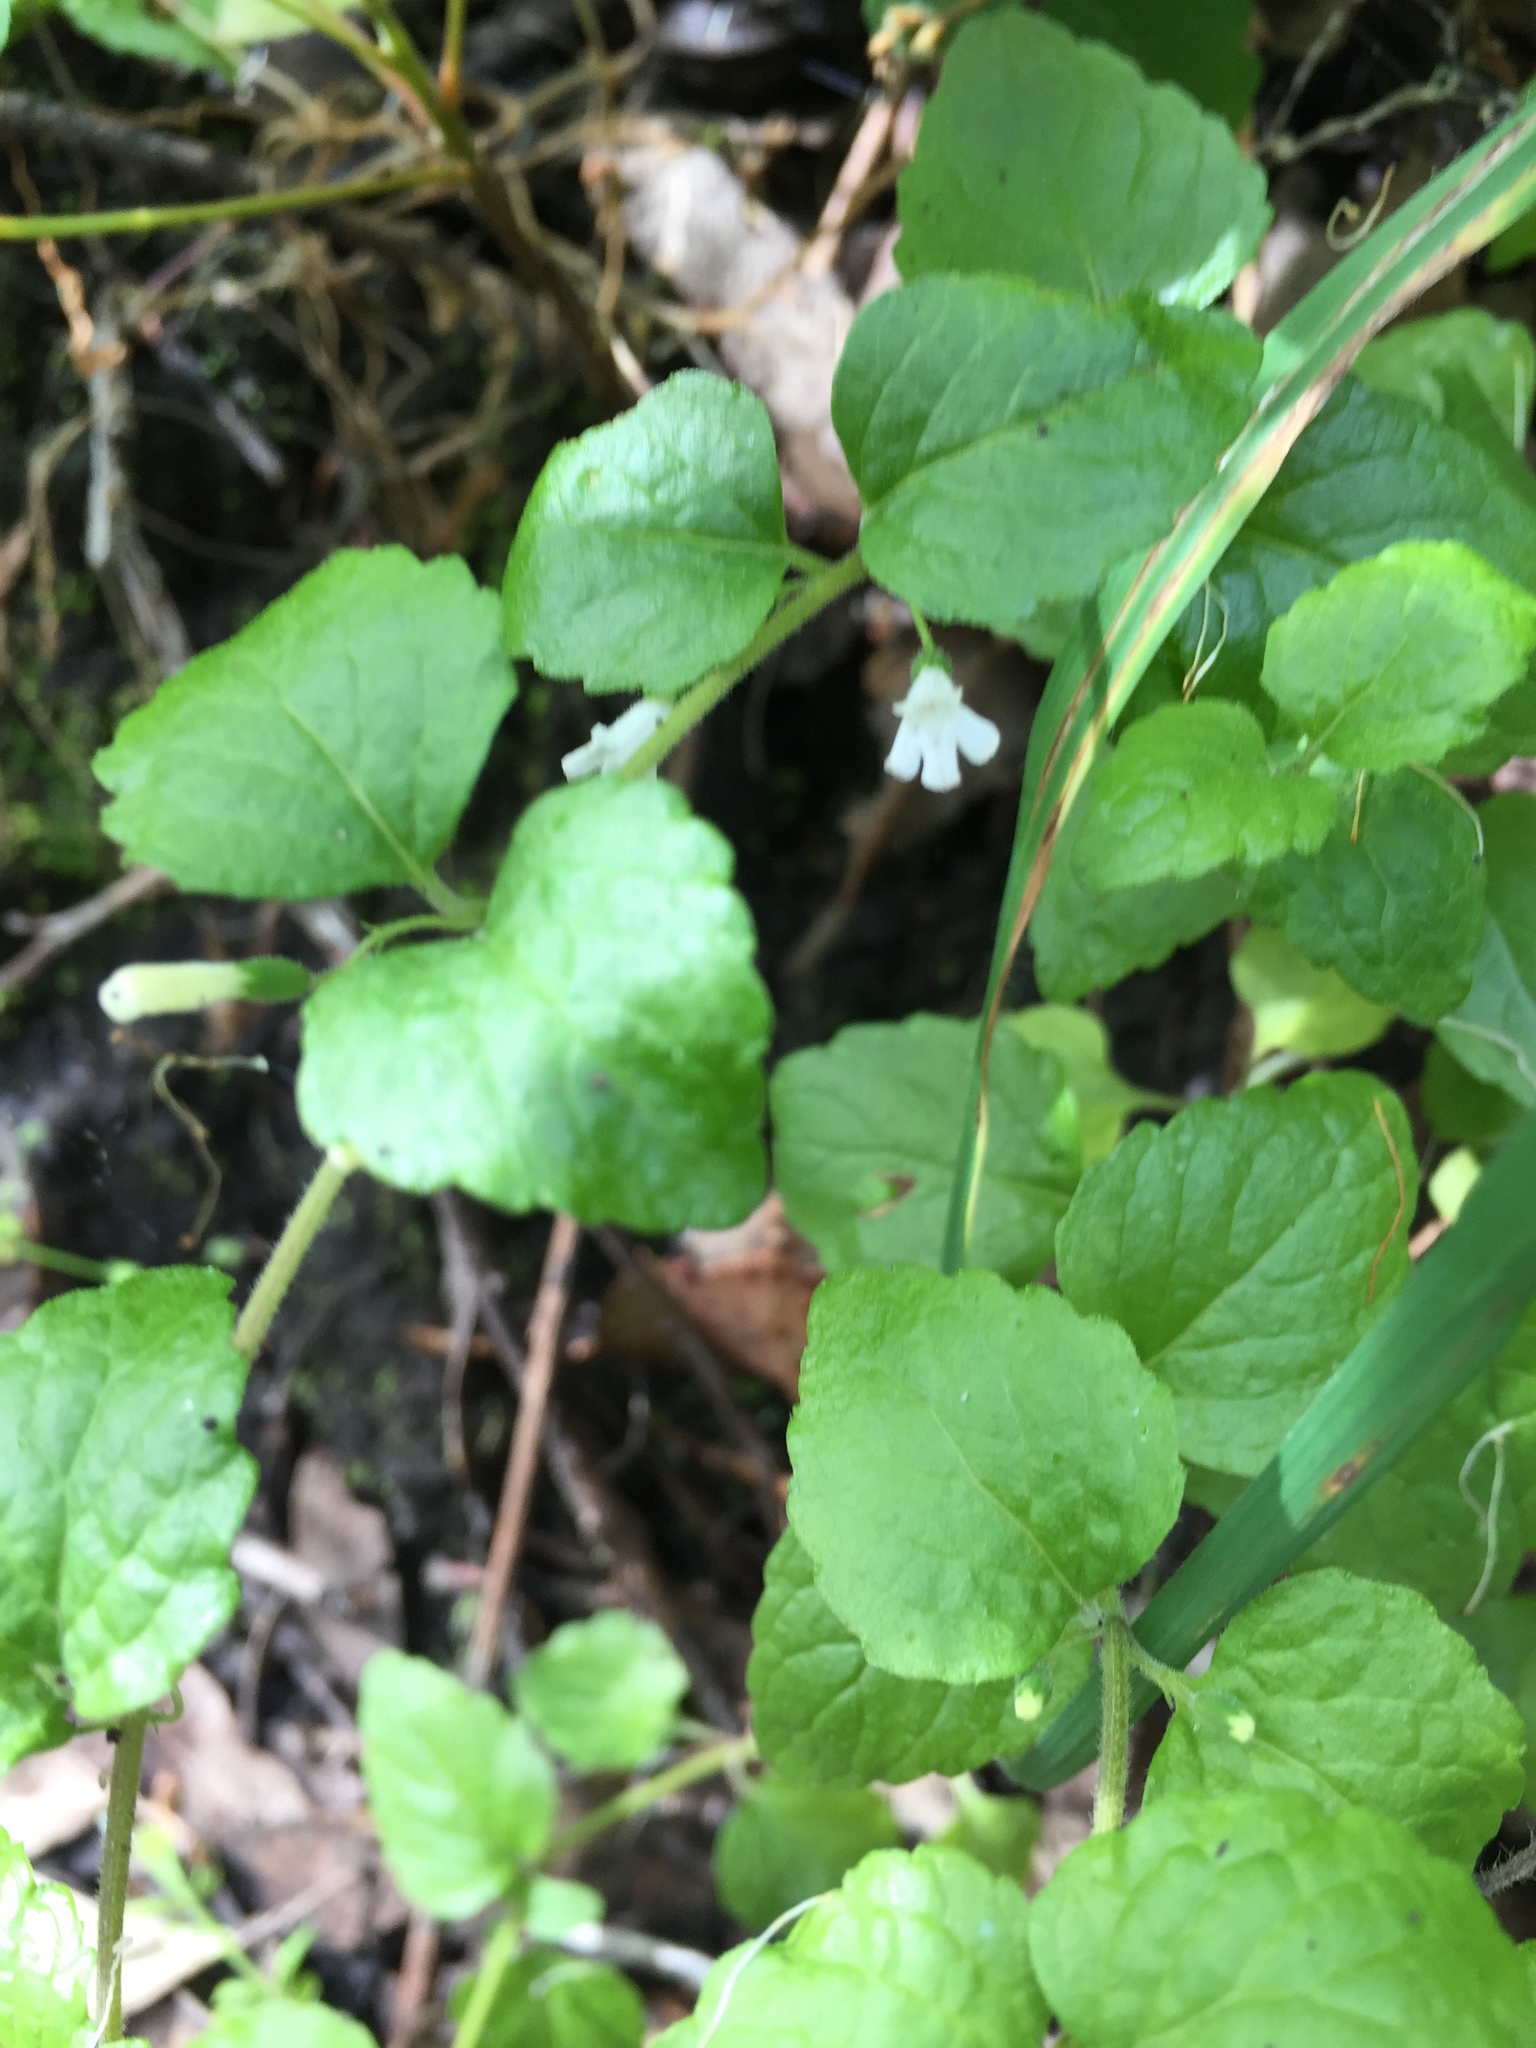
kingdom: Plantae
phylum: Tracheophyta
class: Magnoliopsida
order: Lamiales
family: Lamiaceae
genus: Micromeria
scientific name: Micromeria douglasii
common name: Yerba buena
